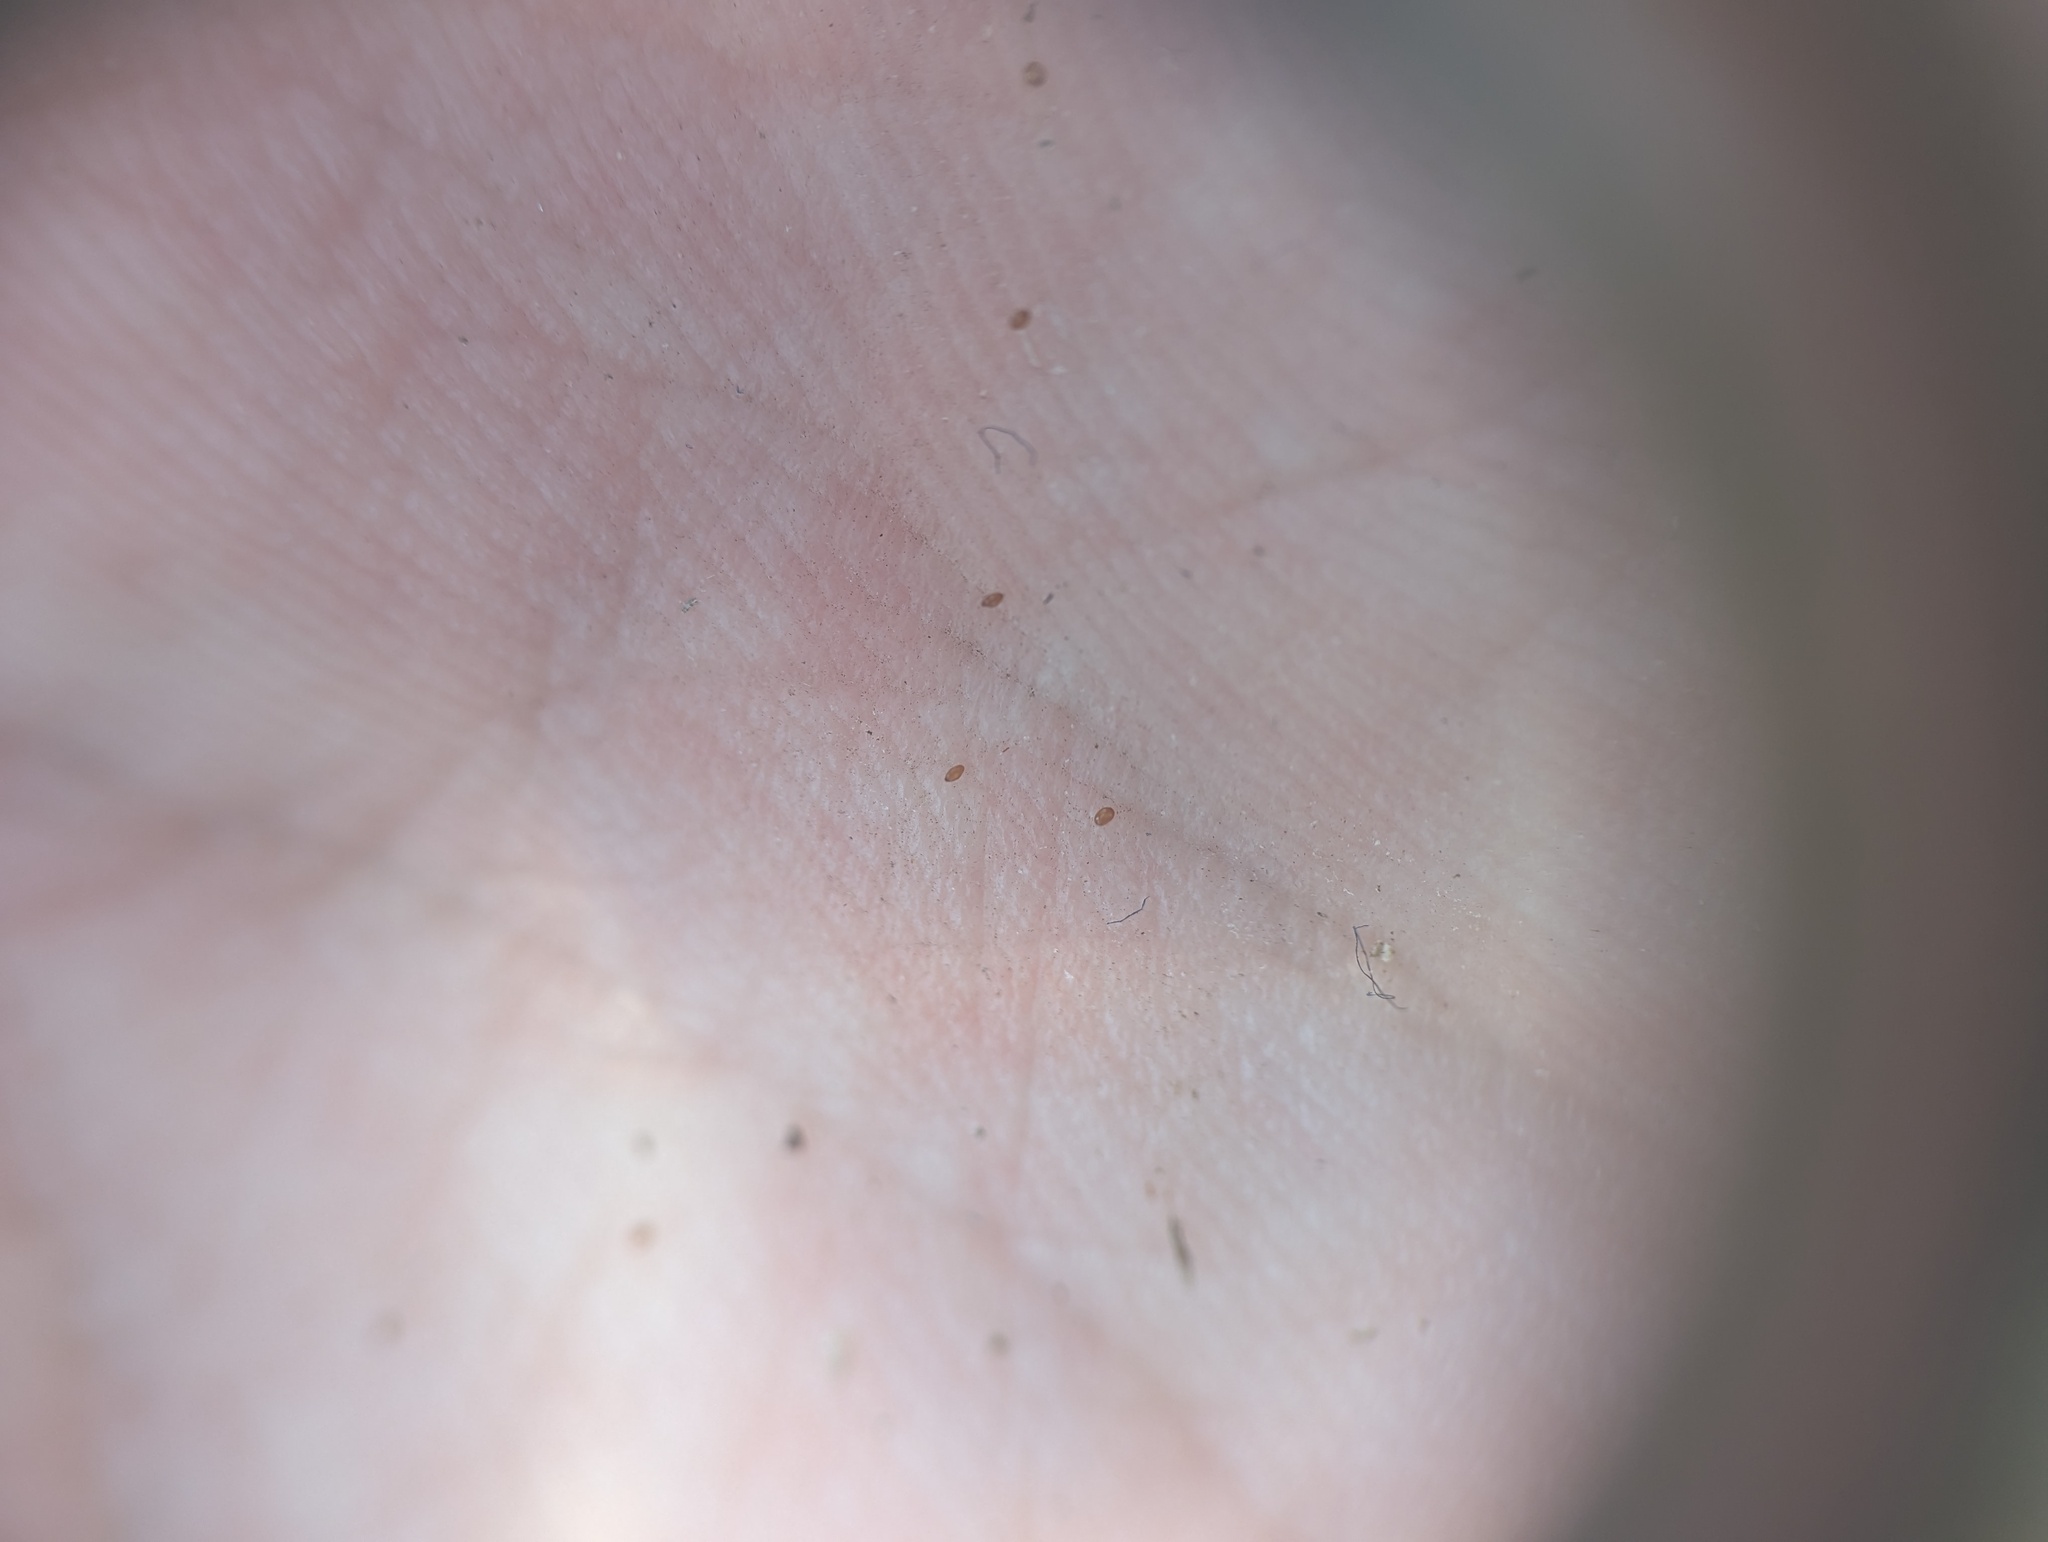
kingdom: Plantae
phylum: Tracheophyta
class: Magnoliopsida
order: Asterales
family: Campanulaceae
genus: Triodanis
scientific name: Triodanis perfoliata
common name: Clasping venus' looking-glass
